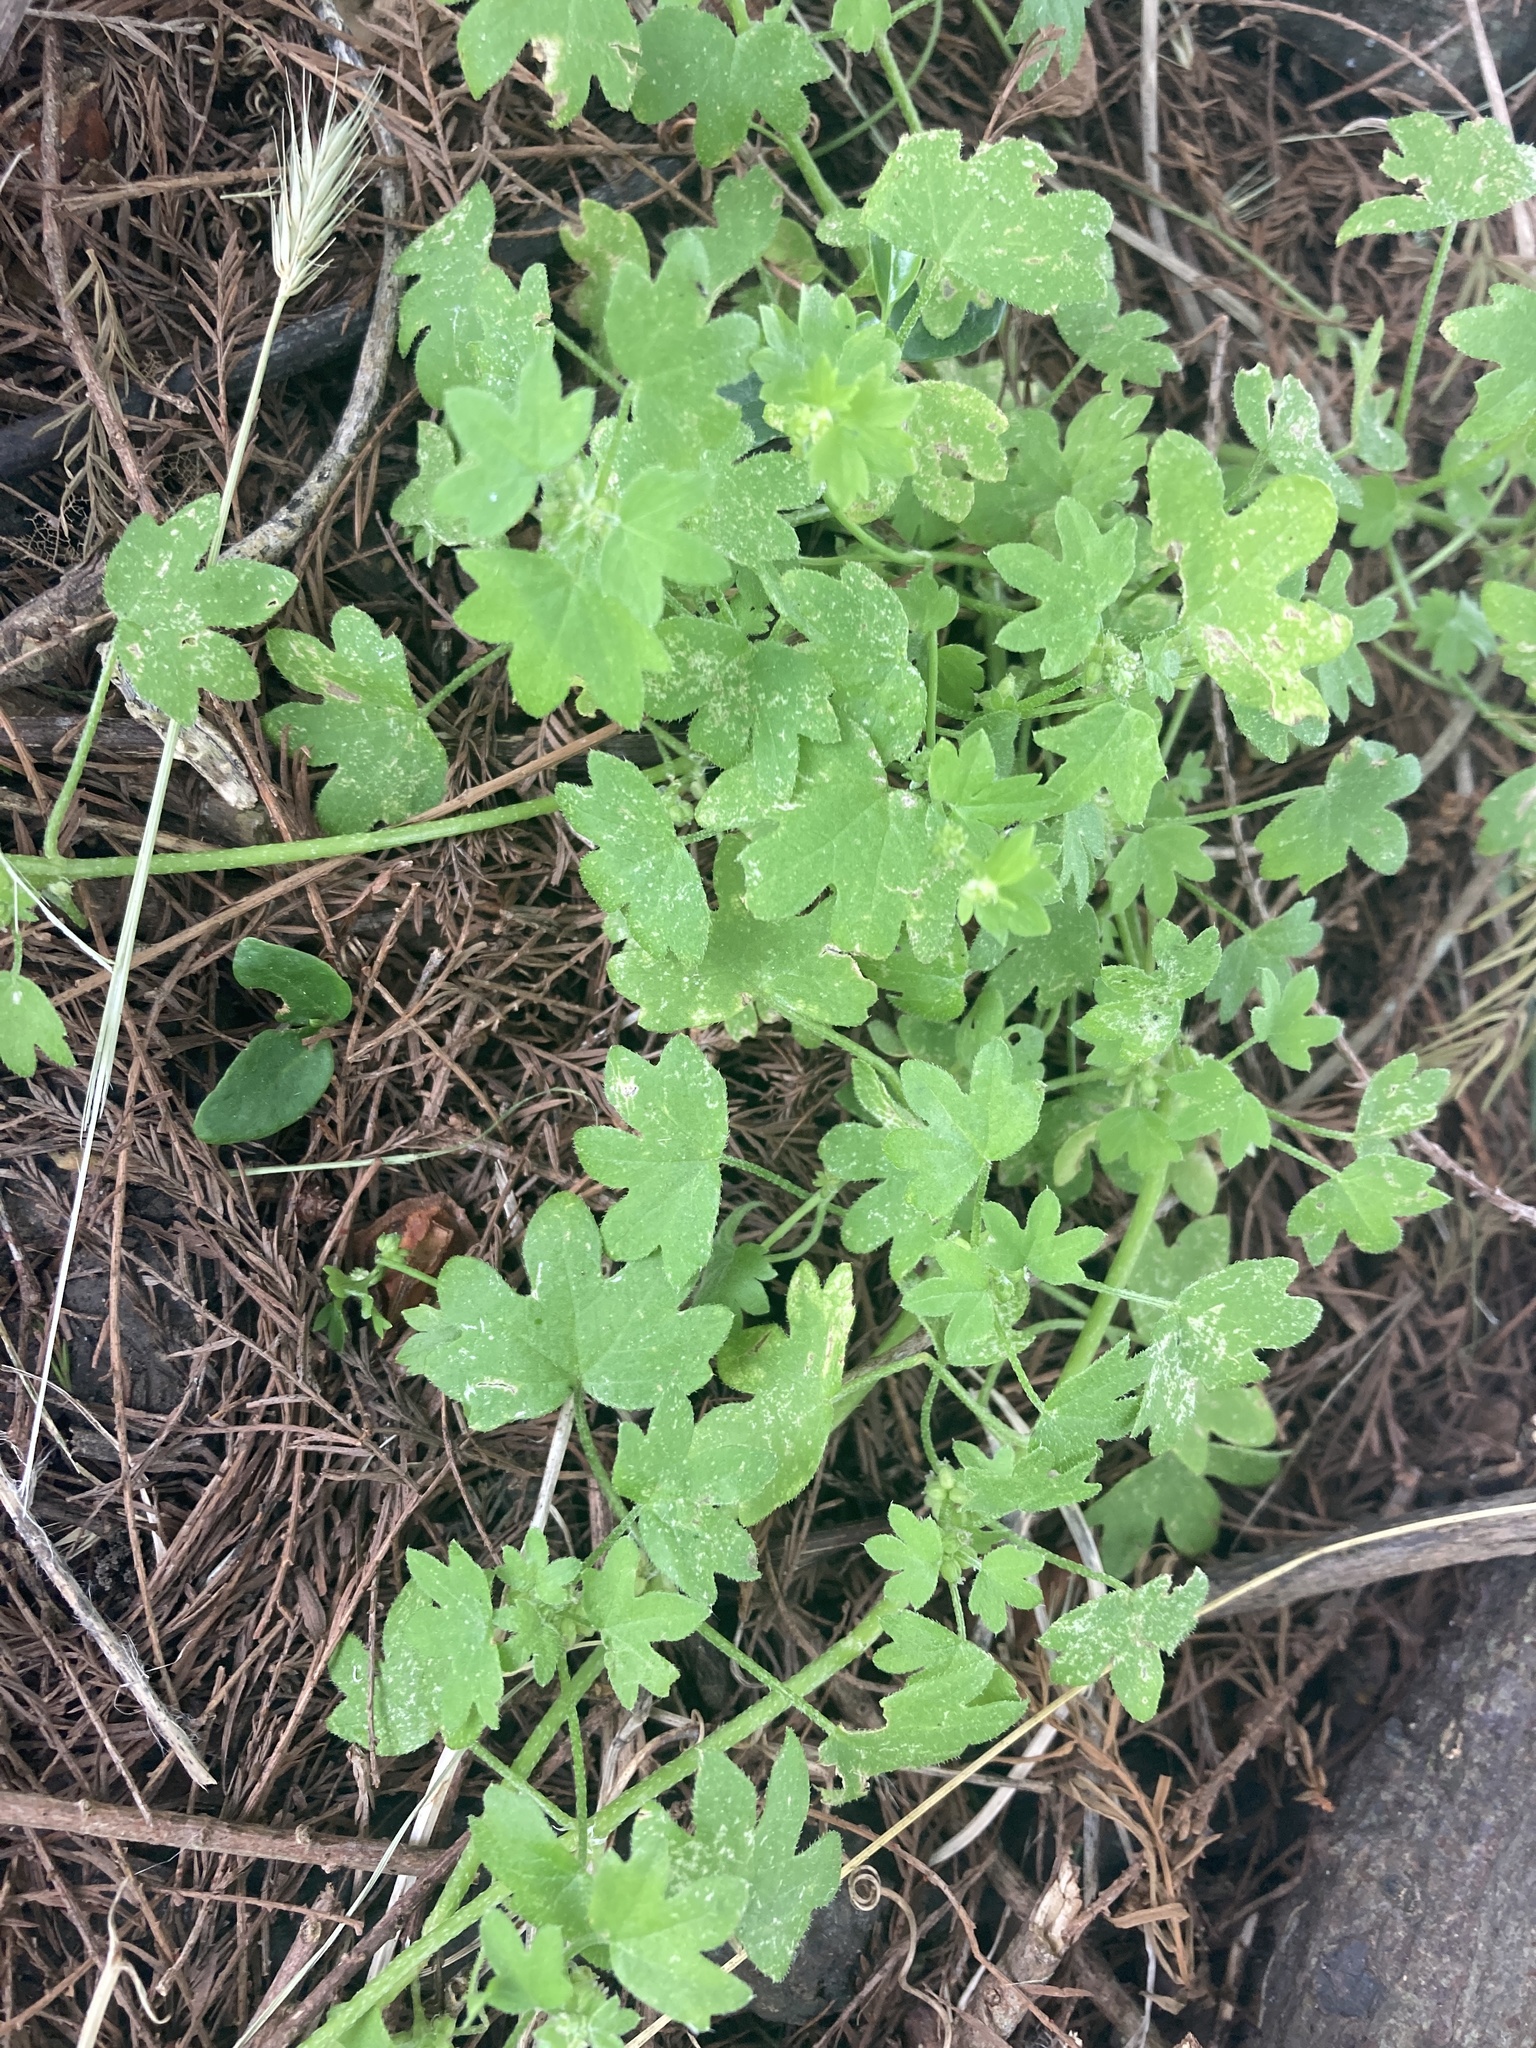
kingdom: Plantae
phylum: Tracheophyta
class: Magnoliopsida
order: Apiales
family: Apiaceae
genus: Bowlesia
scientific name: Bowlesia incana
